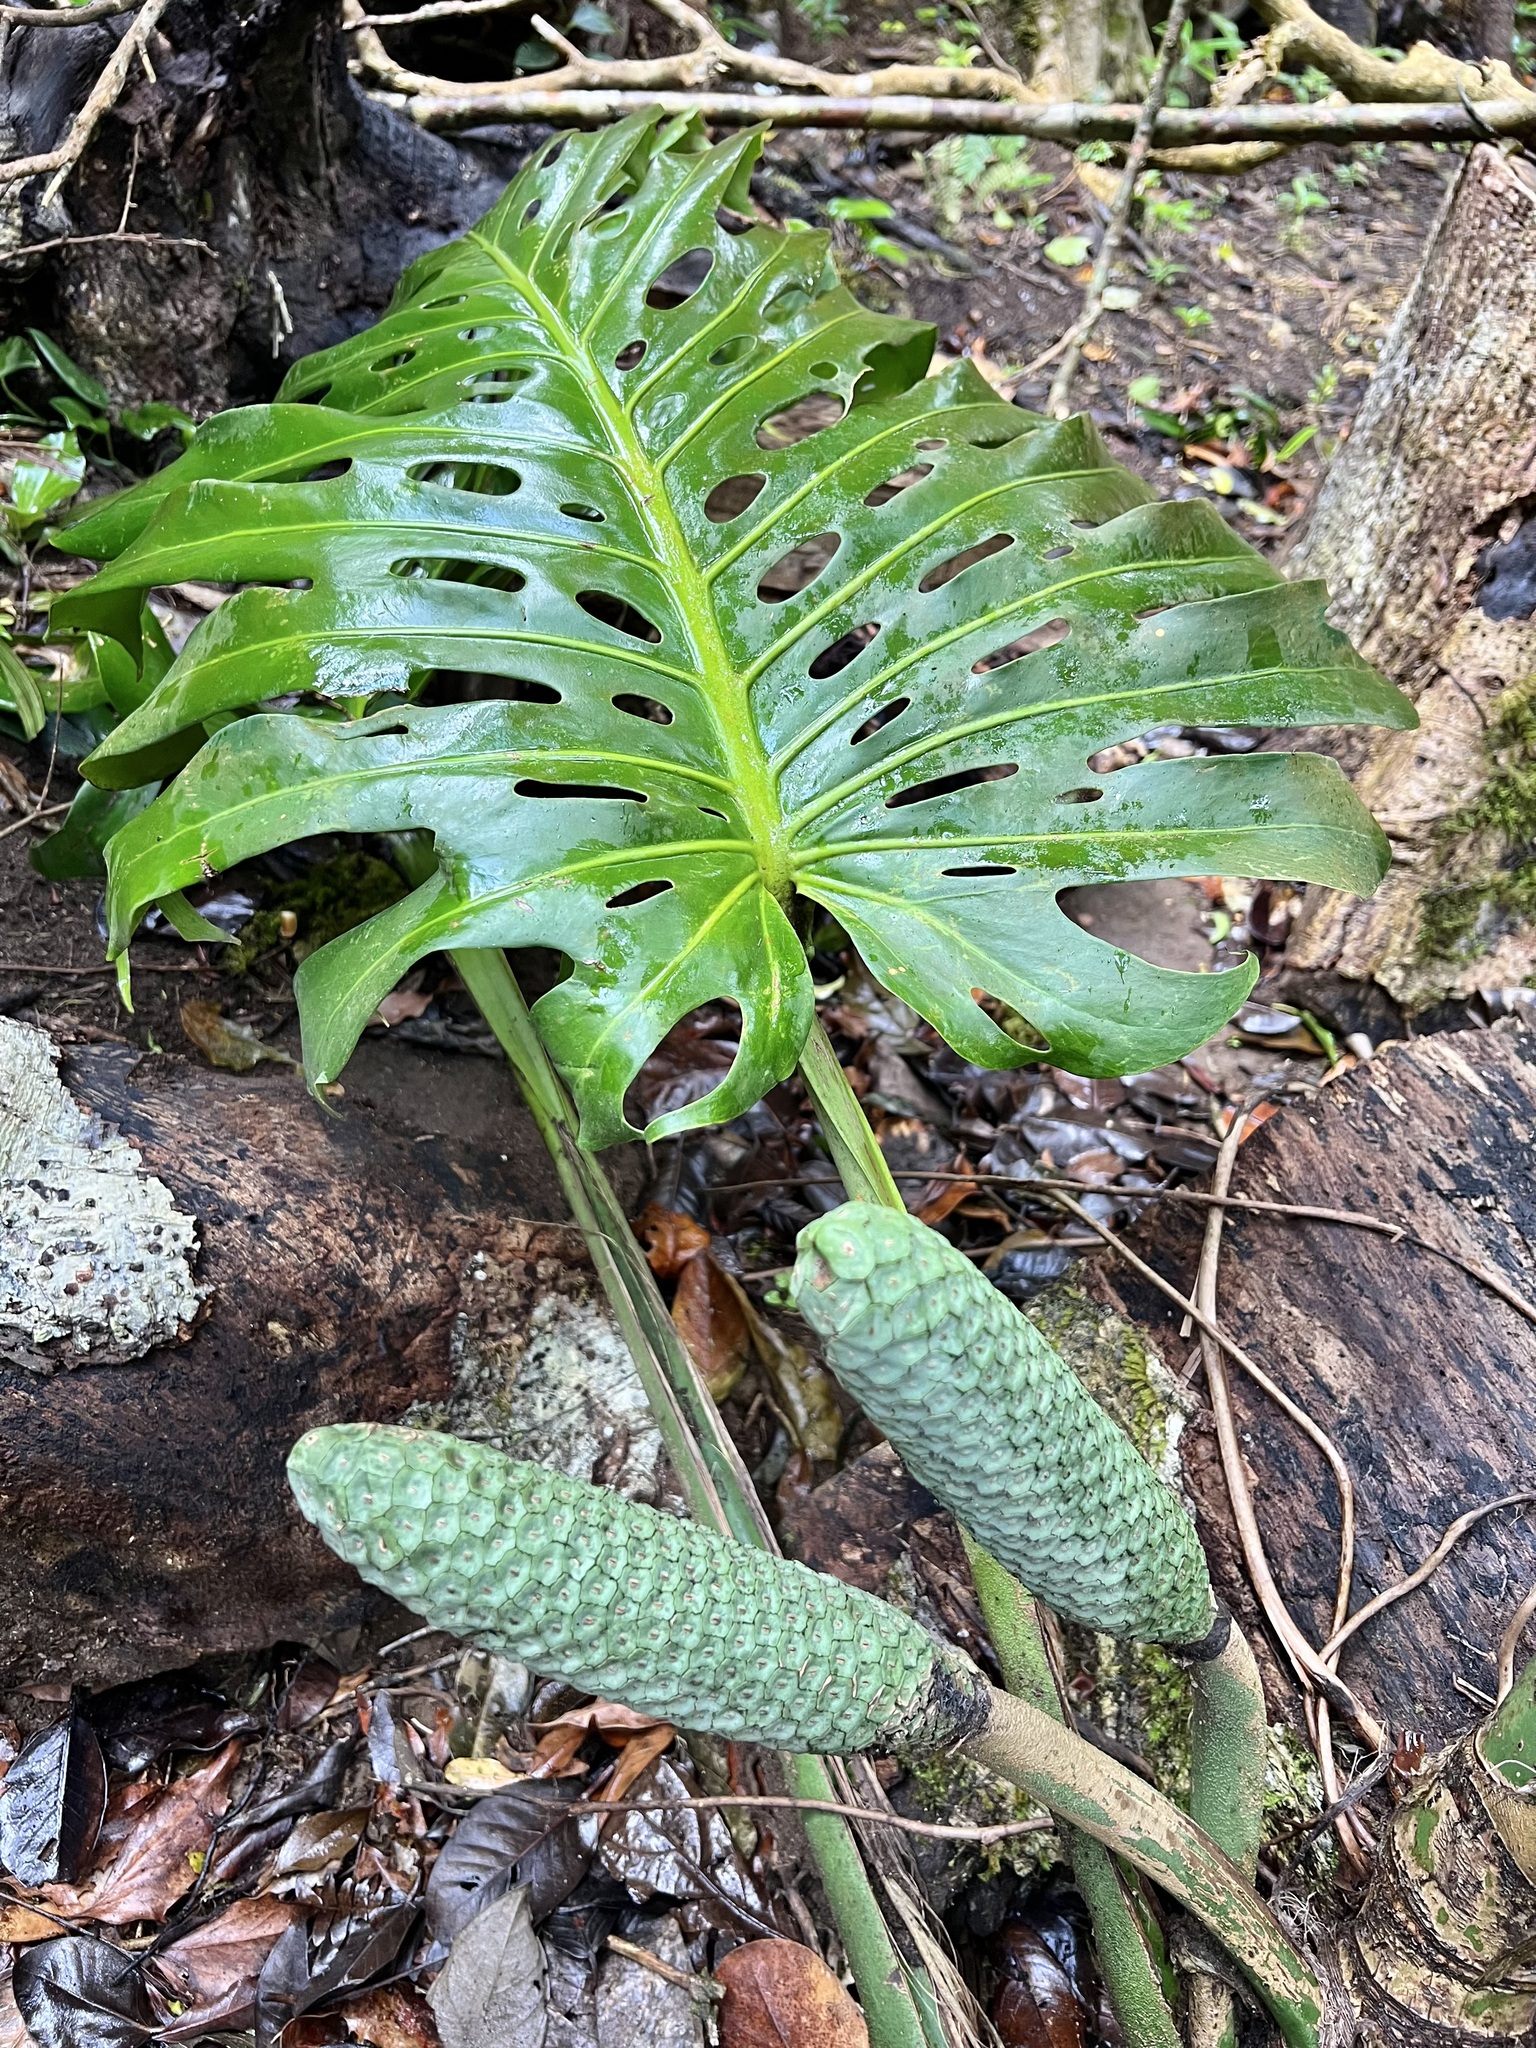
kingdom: Plantae
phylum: Tracheophyta
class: Liliopsida
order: Alismatales
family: Araceae
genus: Monstera
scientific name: Monstera deliciosa
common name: Cut-leaf-philodendron
